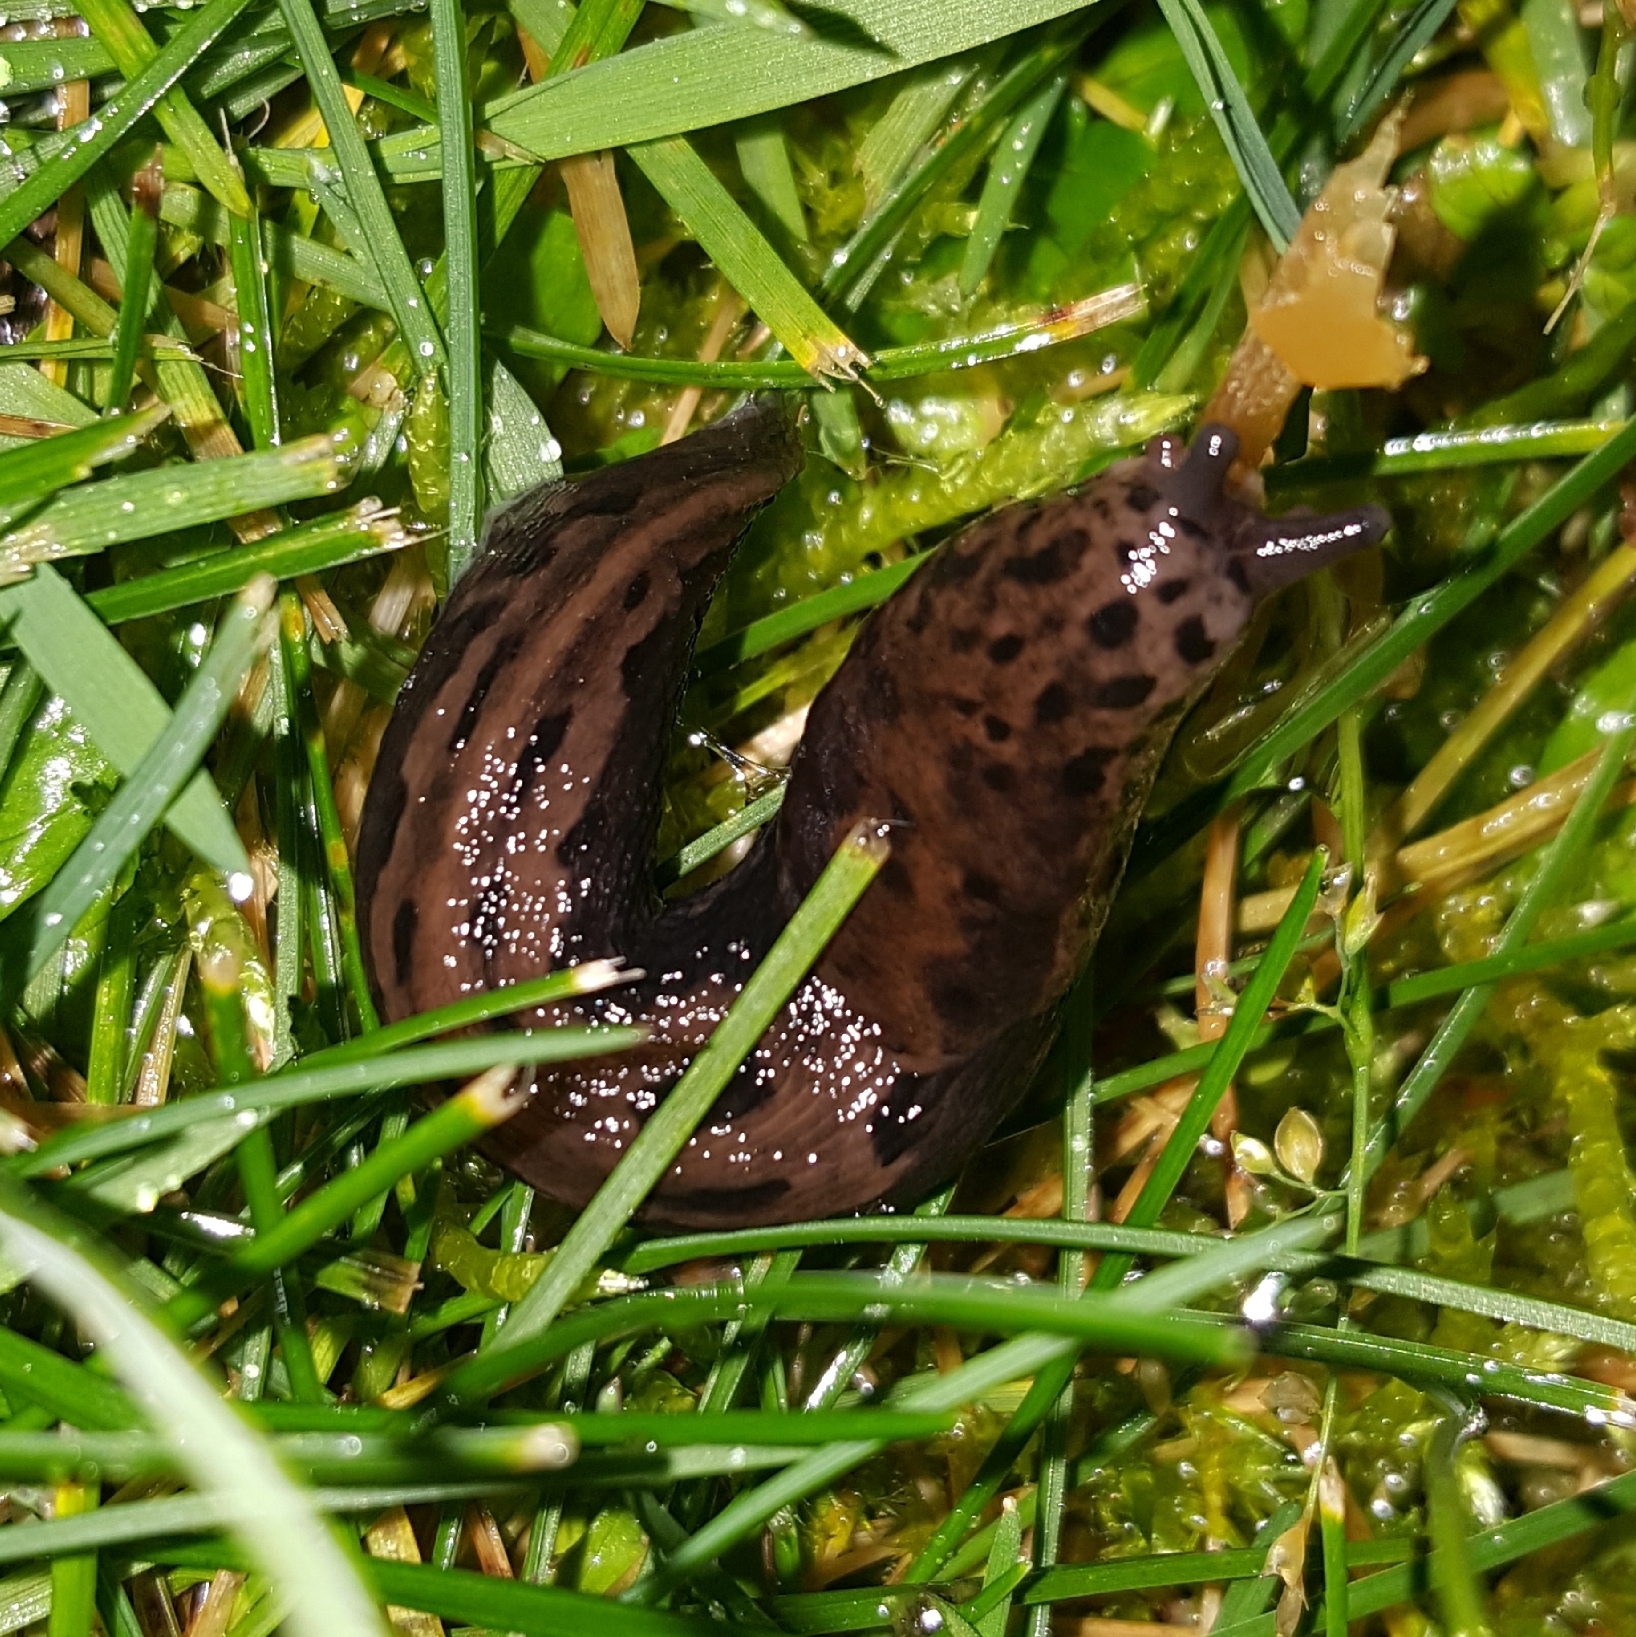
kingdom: Animalia
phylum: Mollusca
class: Gastropoda
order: Stylommatophora
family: Limacidae
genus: Limax
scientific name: Limax maximus
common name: Great grey slug
